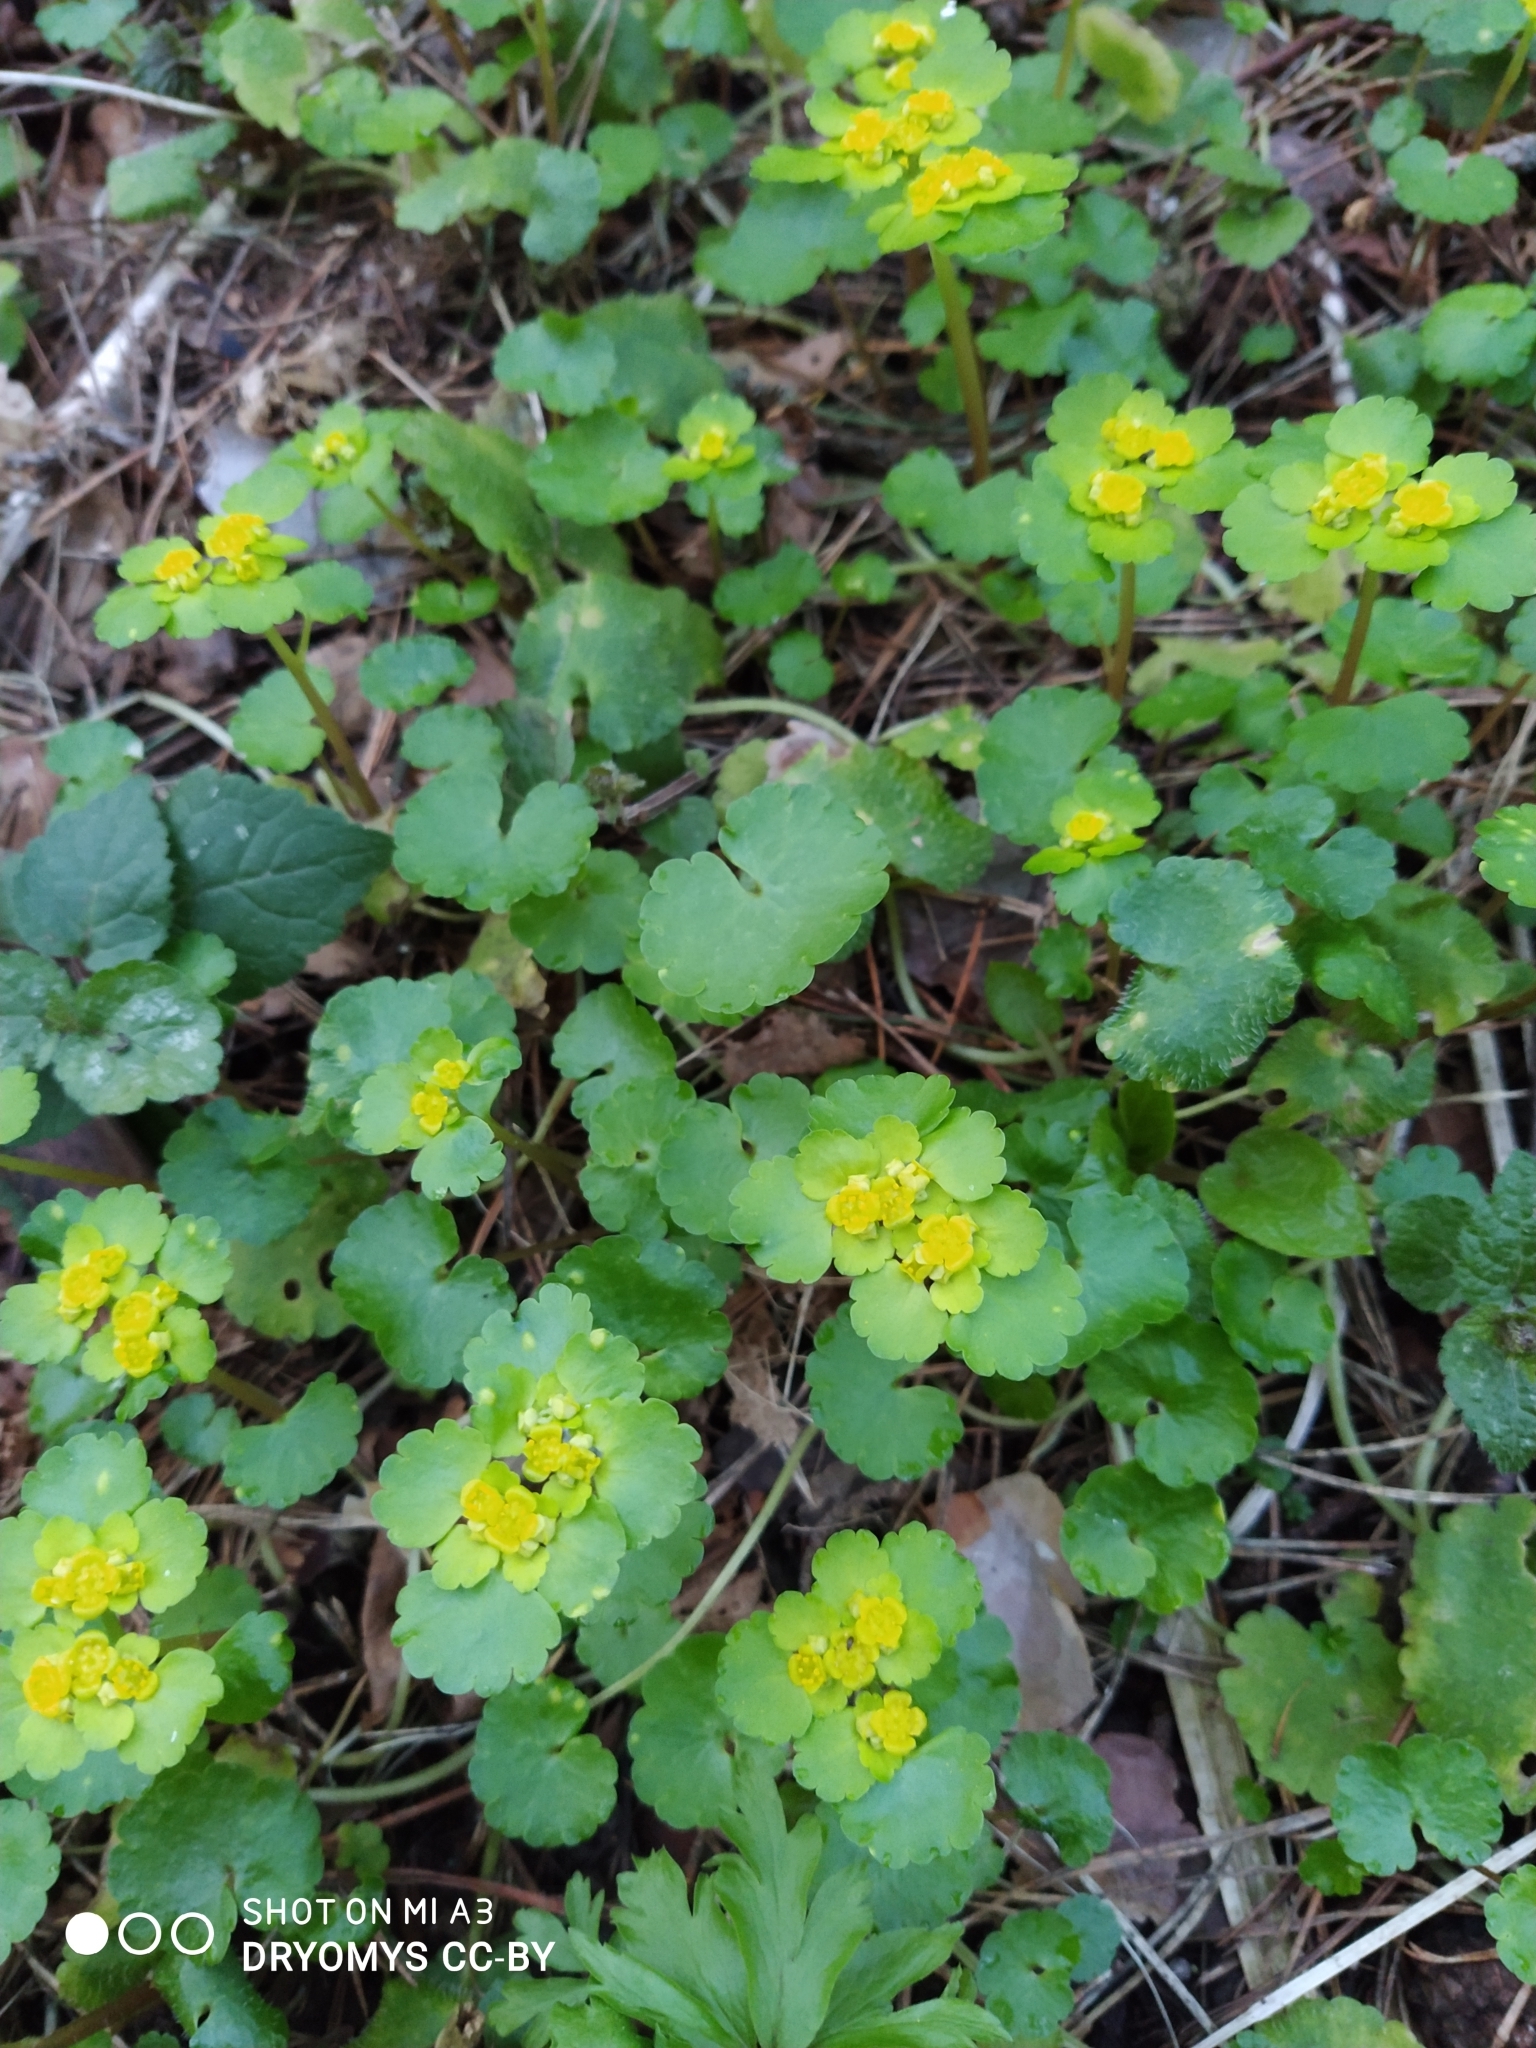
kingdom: Plantae
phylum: Tracheophyta
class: Magnoliopsida
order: Saxifragales
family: Saxifragaceae
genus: Chrysosplenium
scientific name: Chrysosplenium alternifolium
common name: Alternate-leaved golden-saxifrage
